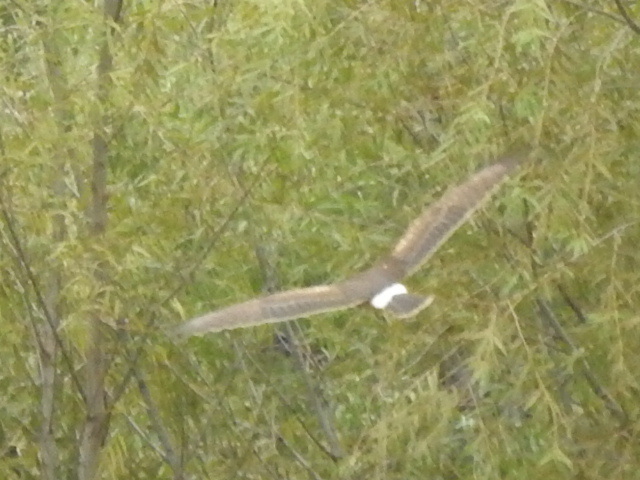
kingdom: Animalia
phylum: Chordata
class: Aves
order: Accipitriformes
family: Accipitridae
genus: Circus
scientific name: Circus cyaneus
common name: Hen harrier
